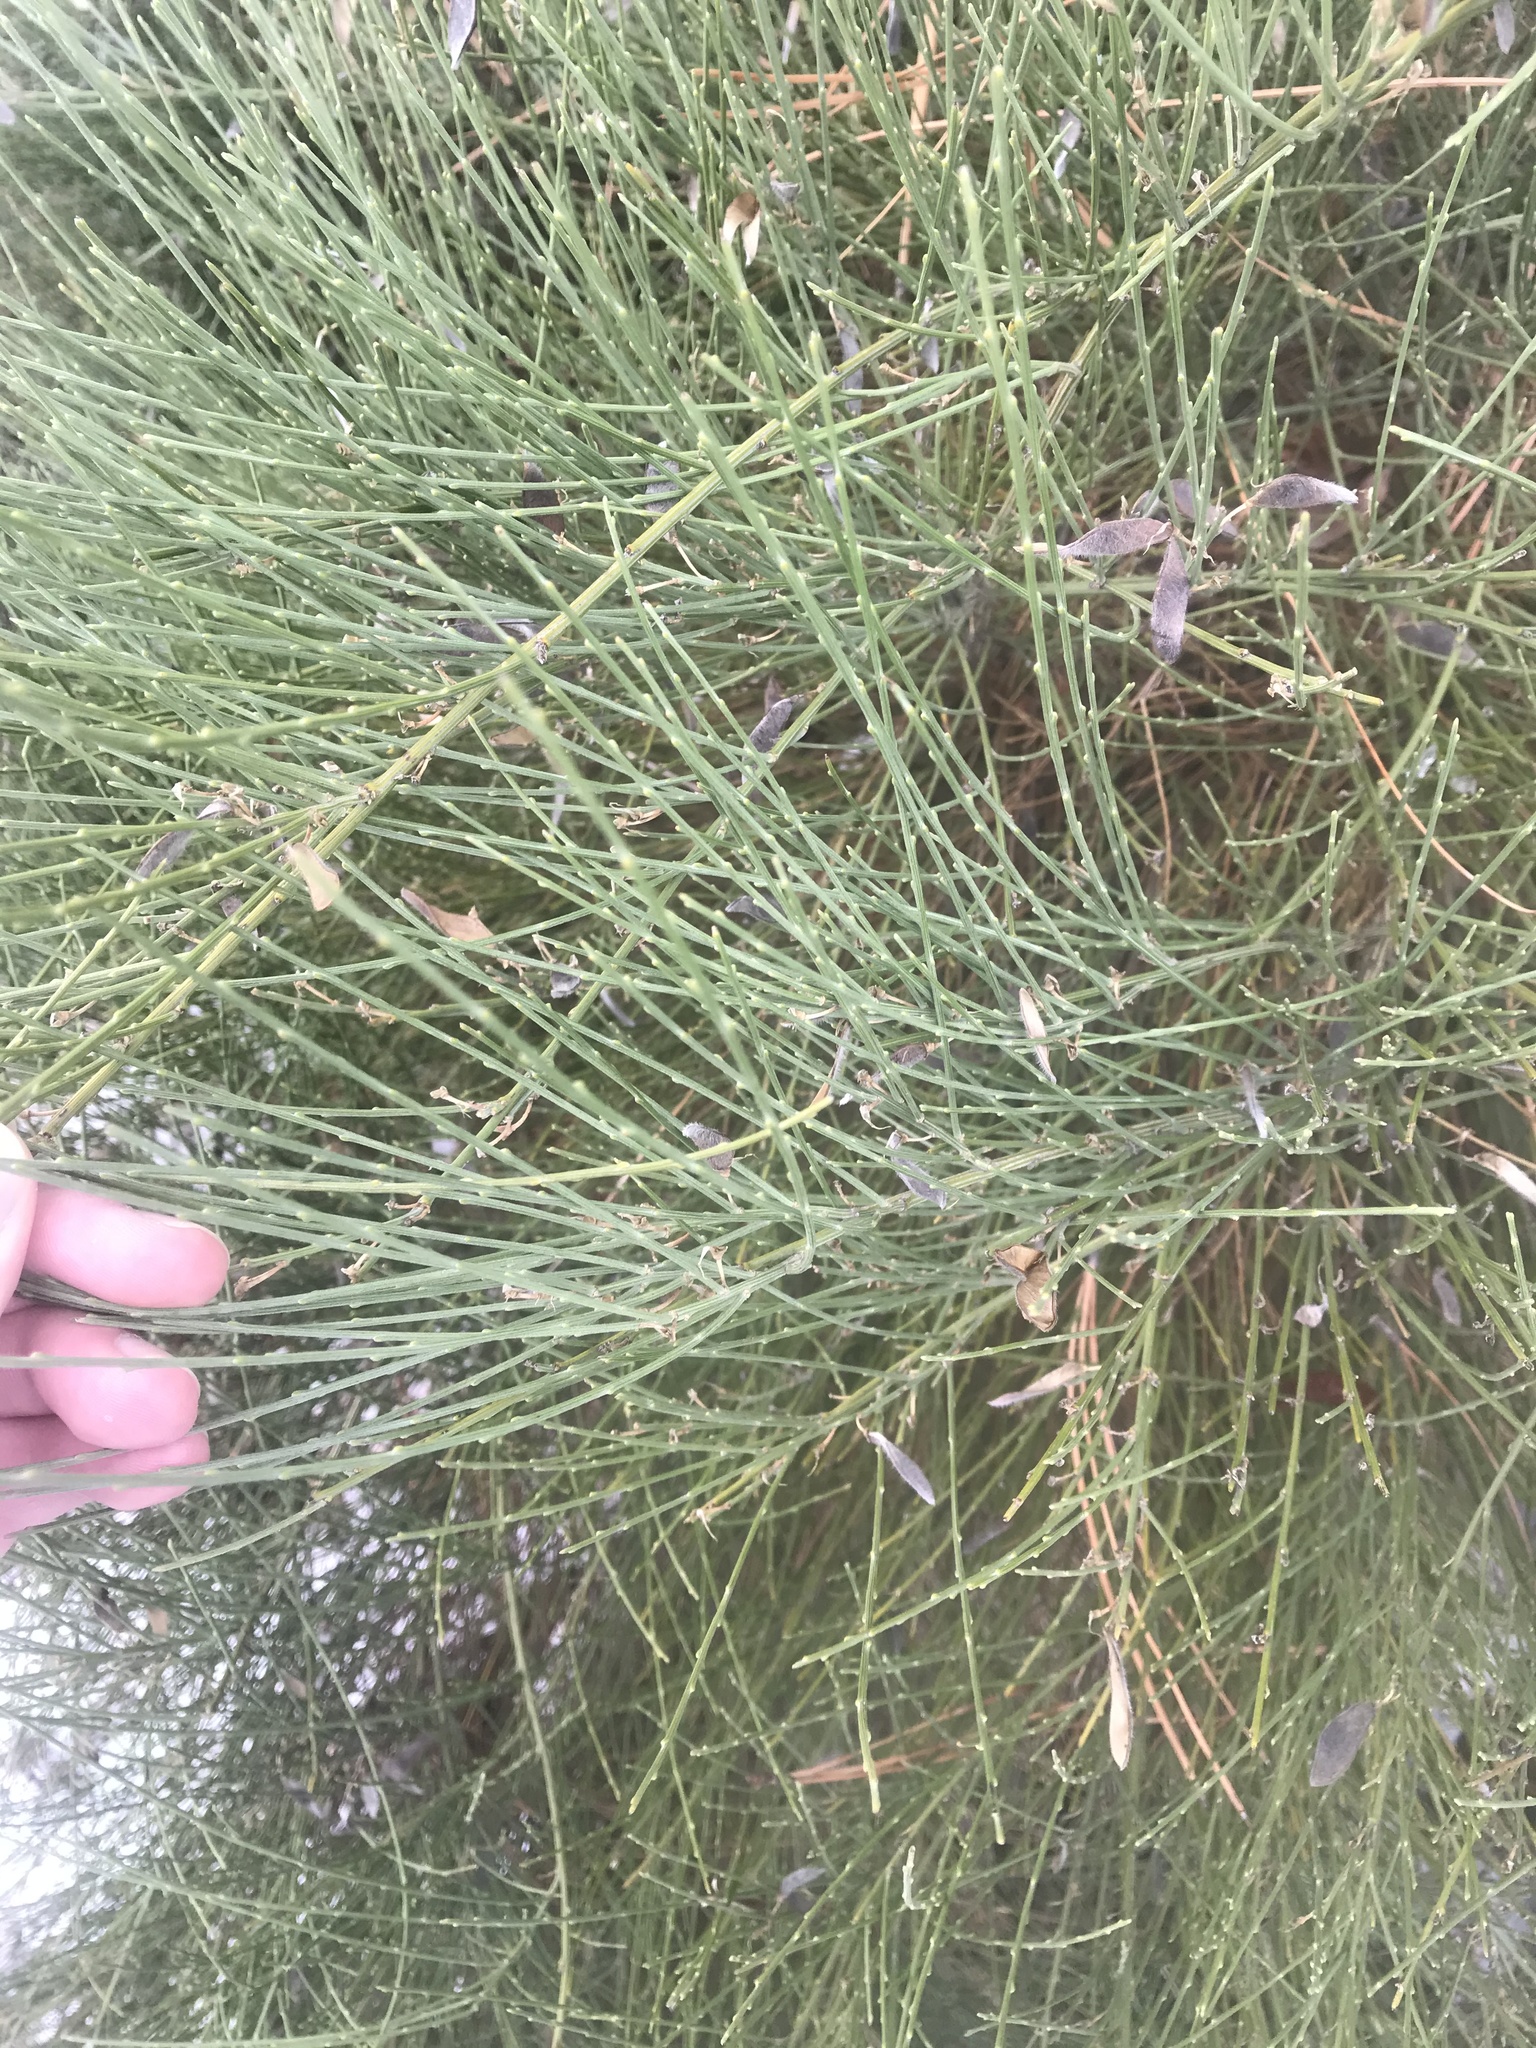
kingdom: Plantae
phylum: Tracheophyta
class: Magnoliopsida
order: Fabales
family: Fabaceae
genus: Cytisus
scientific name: Cytisus scoparius
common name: Scotch broom
